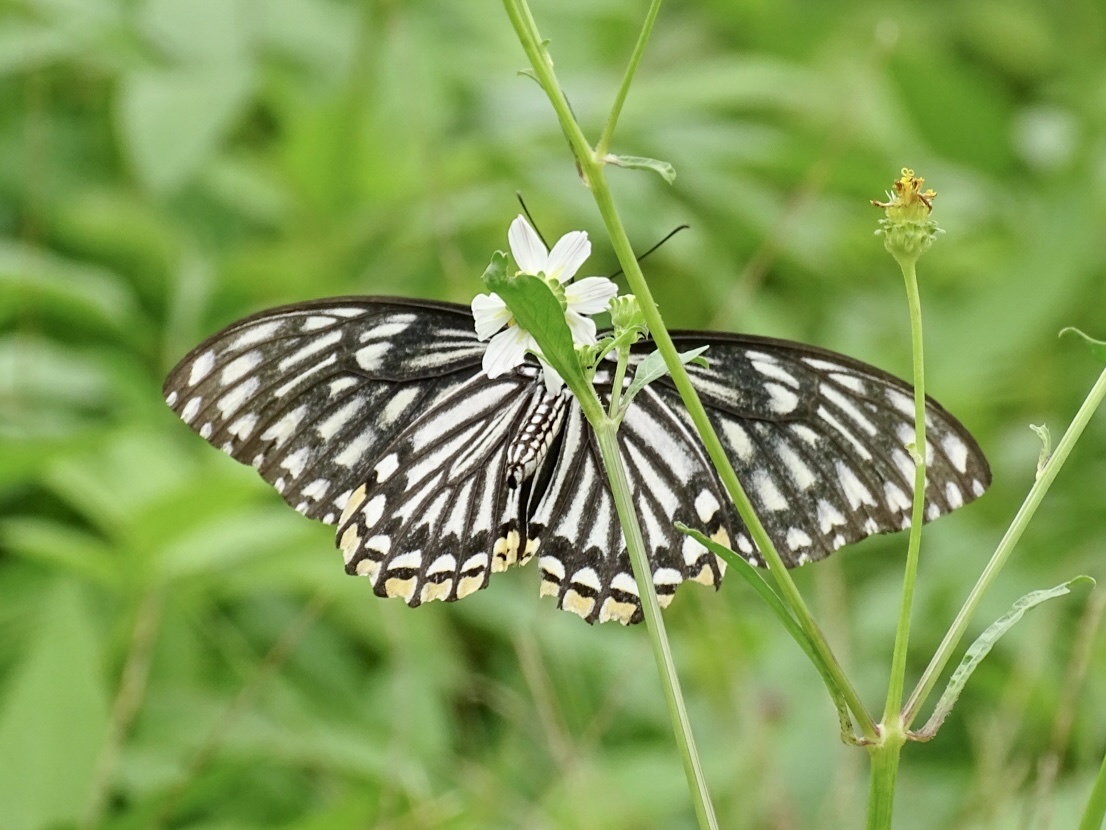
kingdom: Animalia
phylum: Arthropoda
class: Insecta
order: Lepidoptera
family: Papilionidae
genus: Chilasa
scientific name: Chilasa clytia
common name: Common mime
